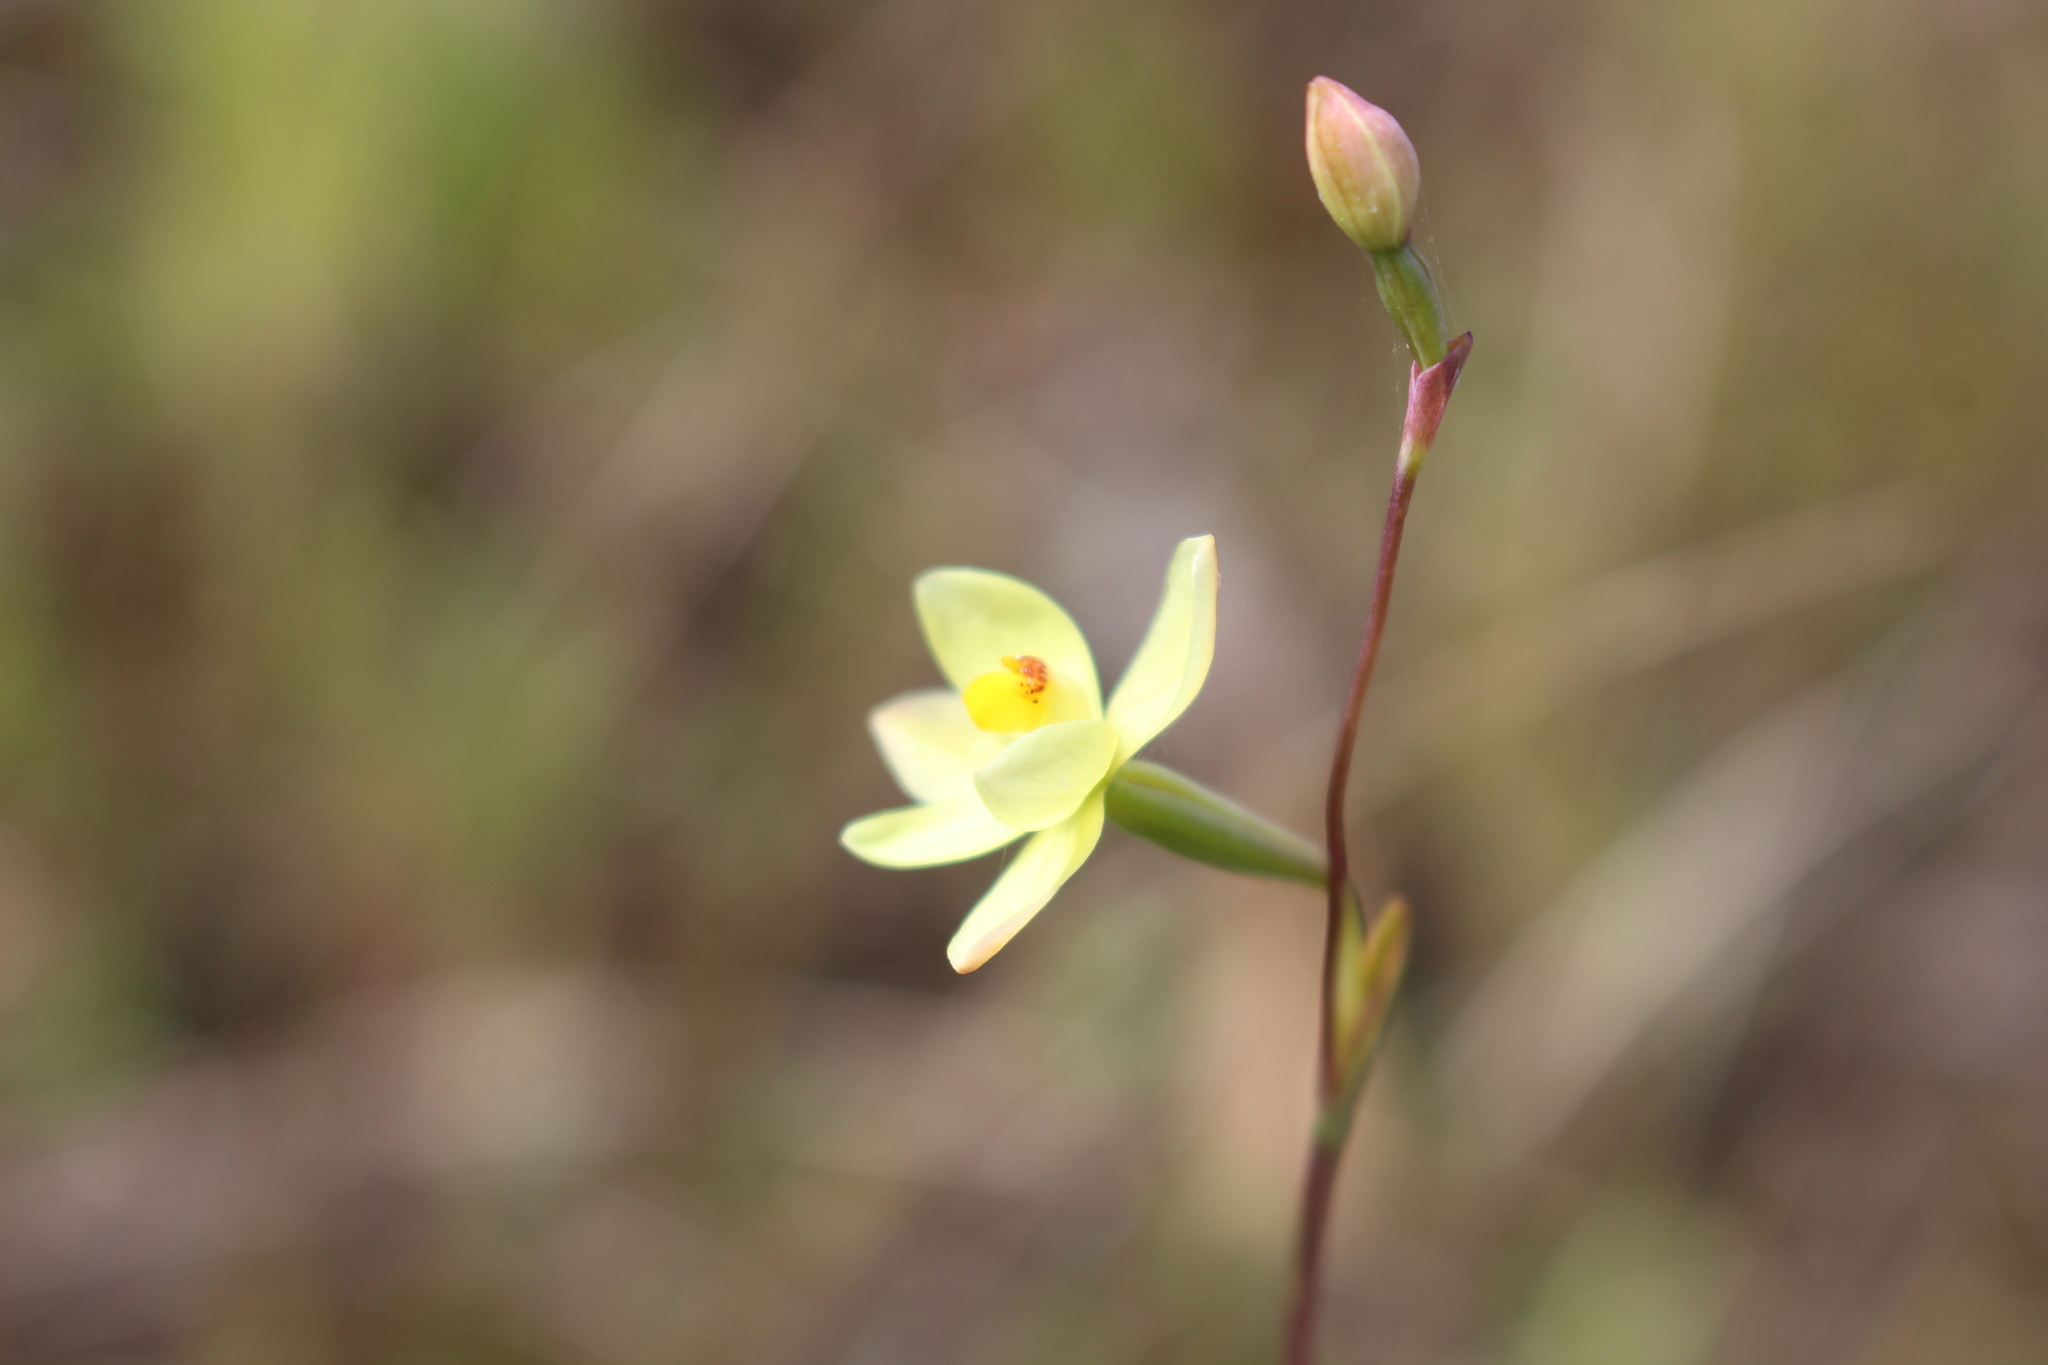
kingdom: Plantae
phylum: Tracheophyta
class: Liliopsida
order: Asparagales
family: Orchidaceae
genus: Thelymitra
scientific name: Thelymitra flexuosa
